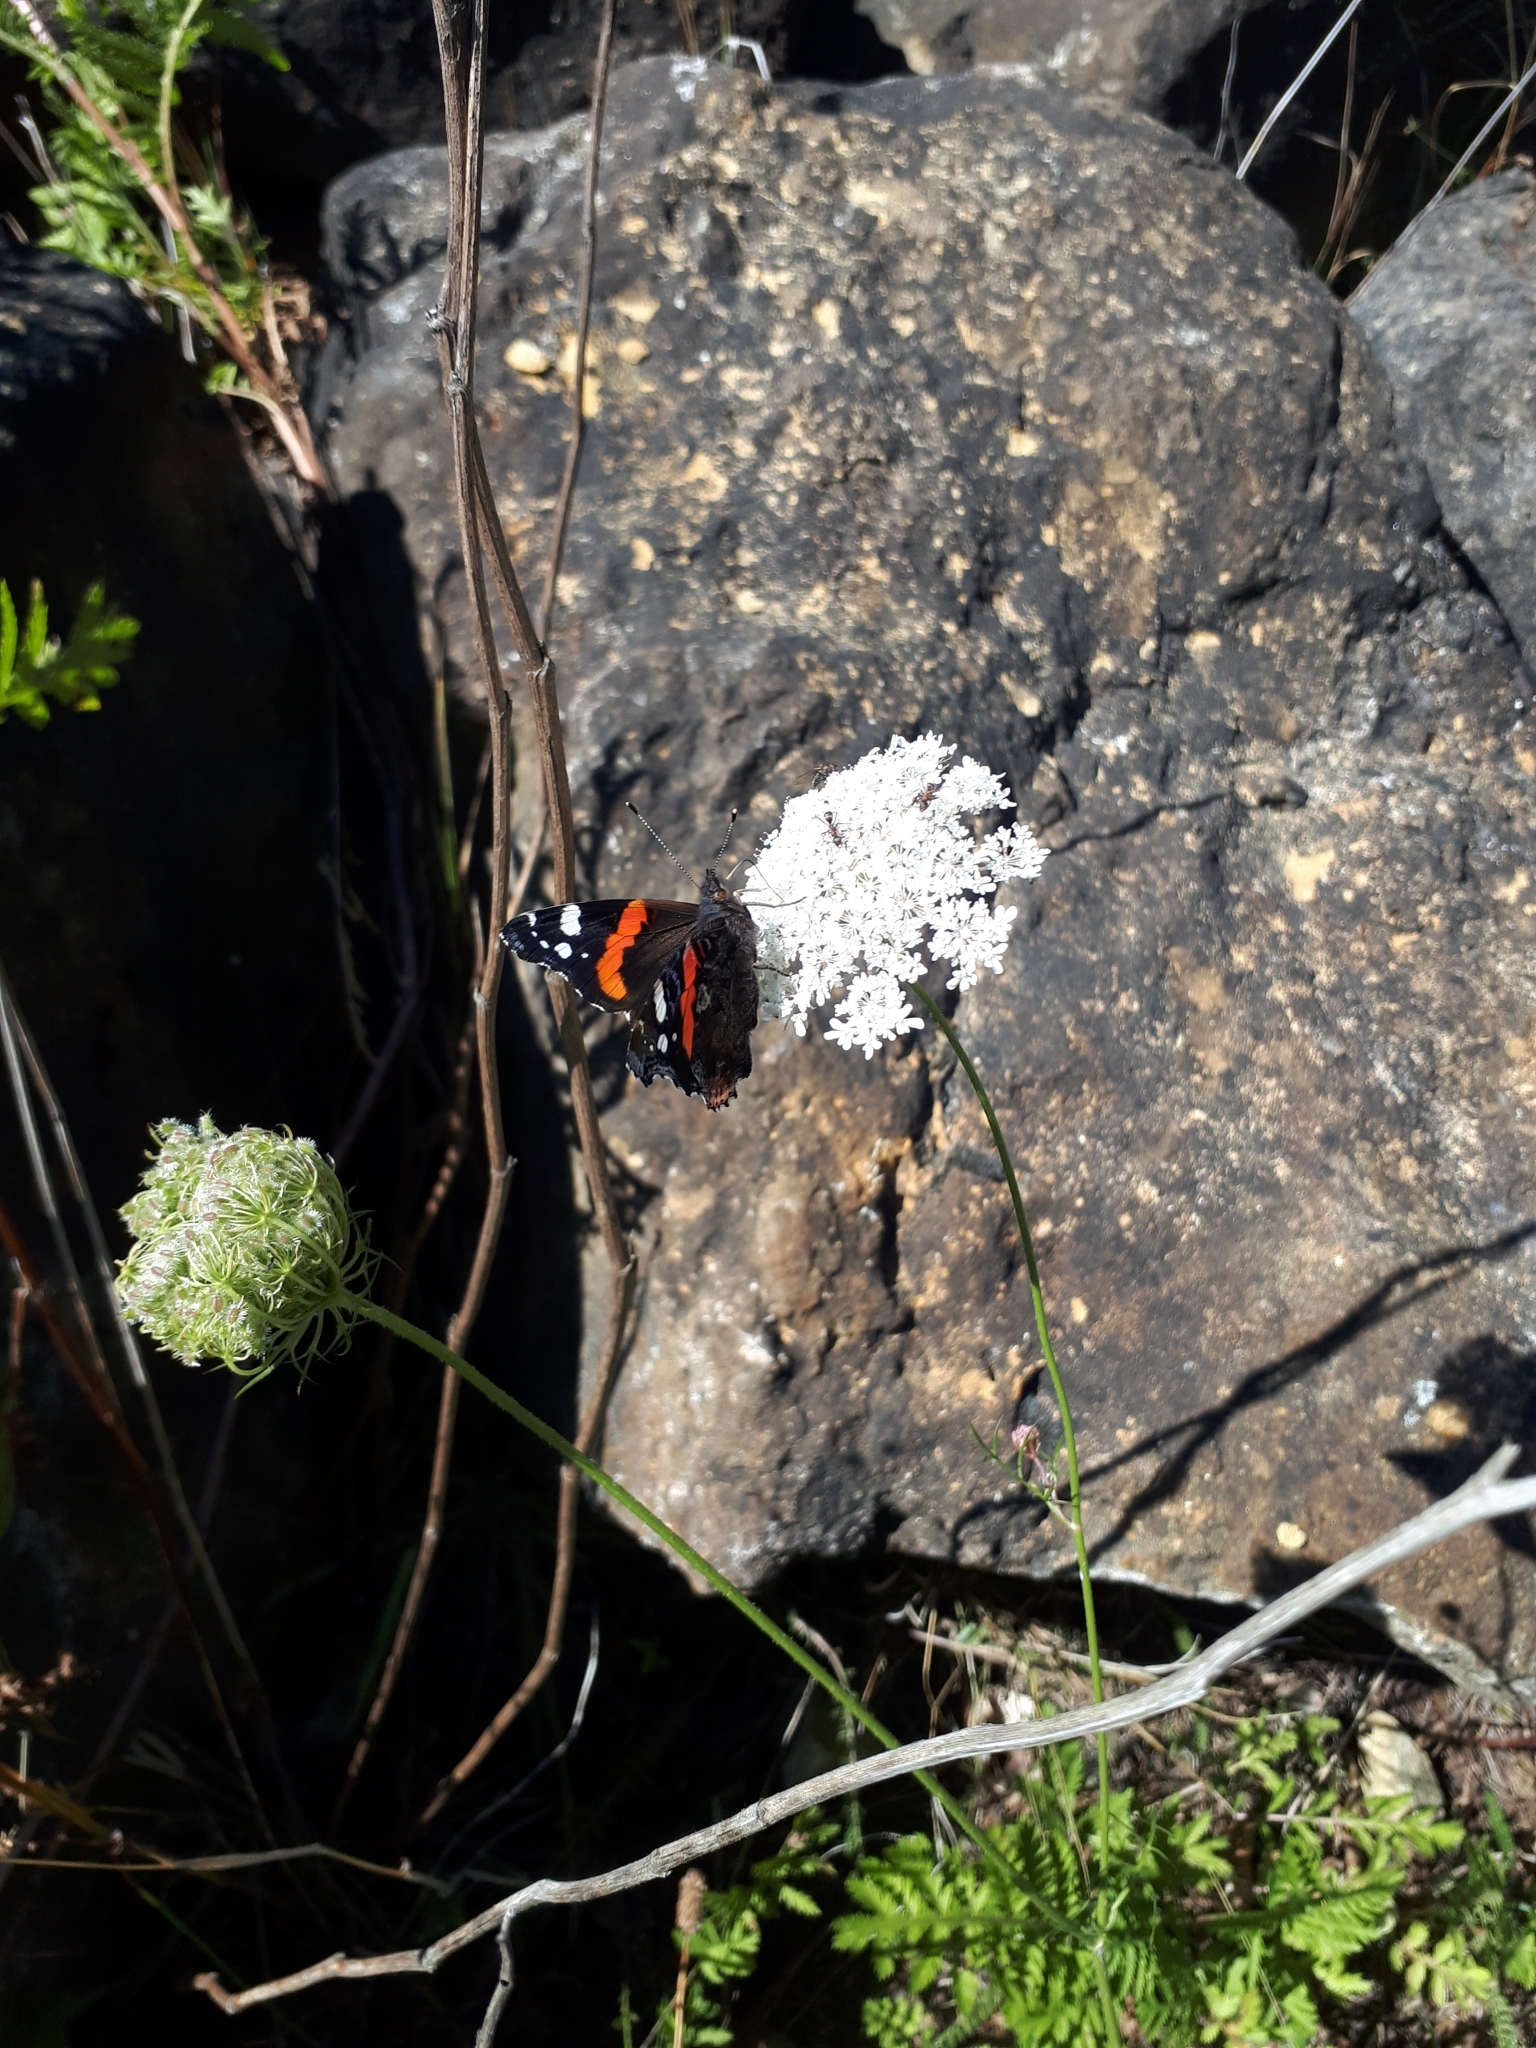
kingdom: Animalia
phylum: Arthropoda
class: Insecta
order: Lepidoptera
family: Nymphalidae
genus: Vanessa
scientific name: Vanessa atalanta
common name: Red admiral
